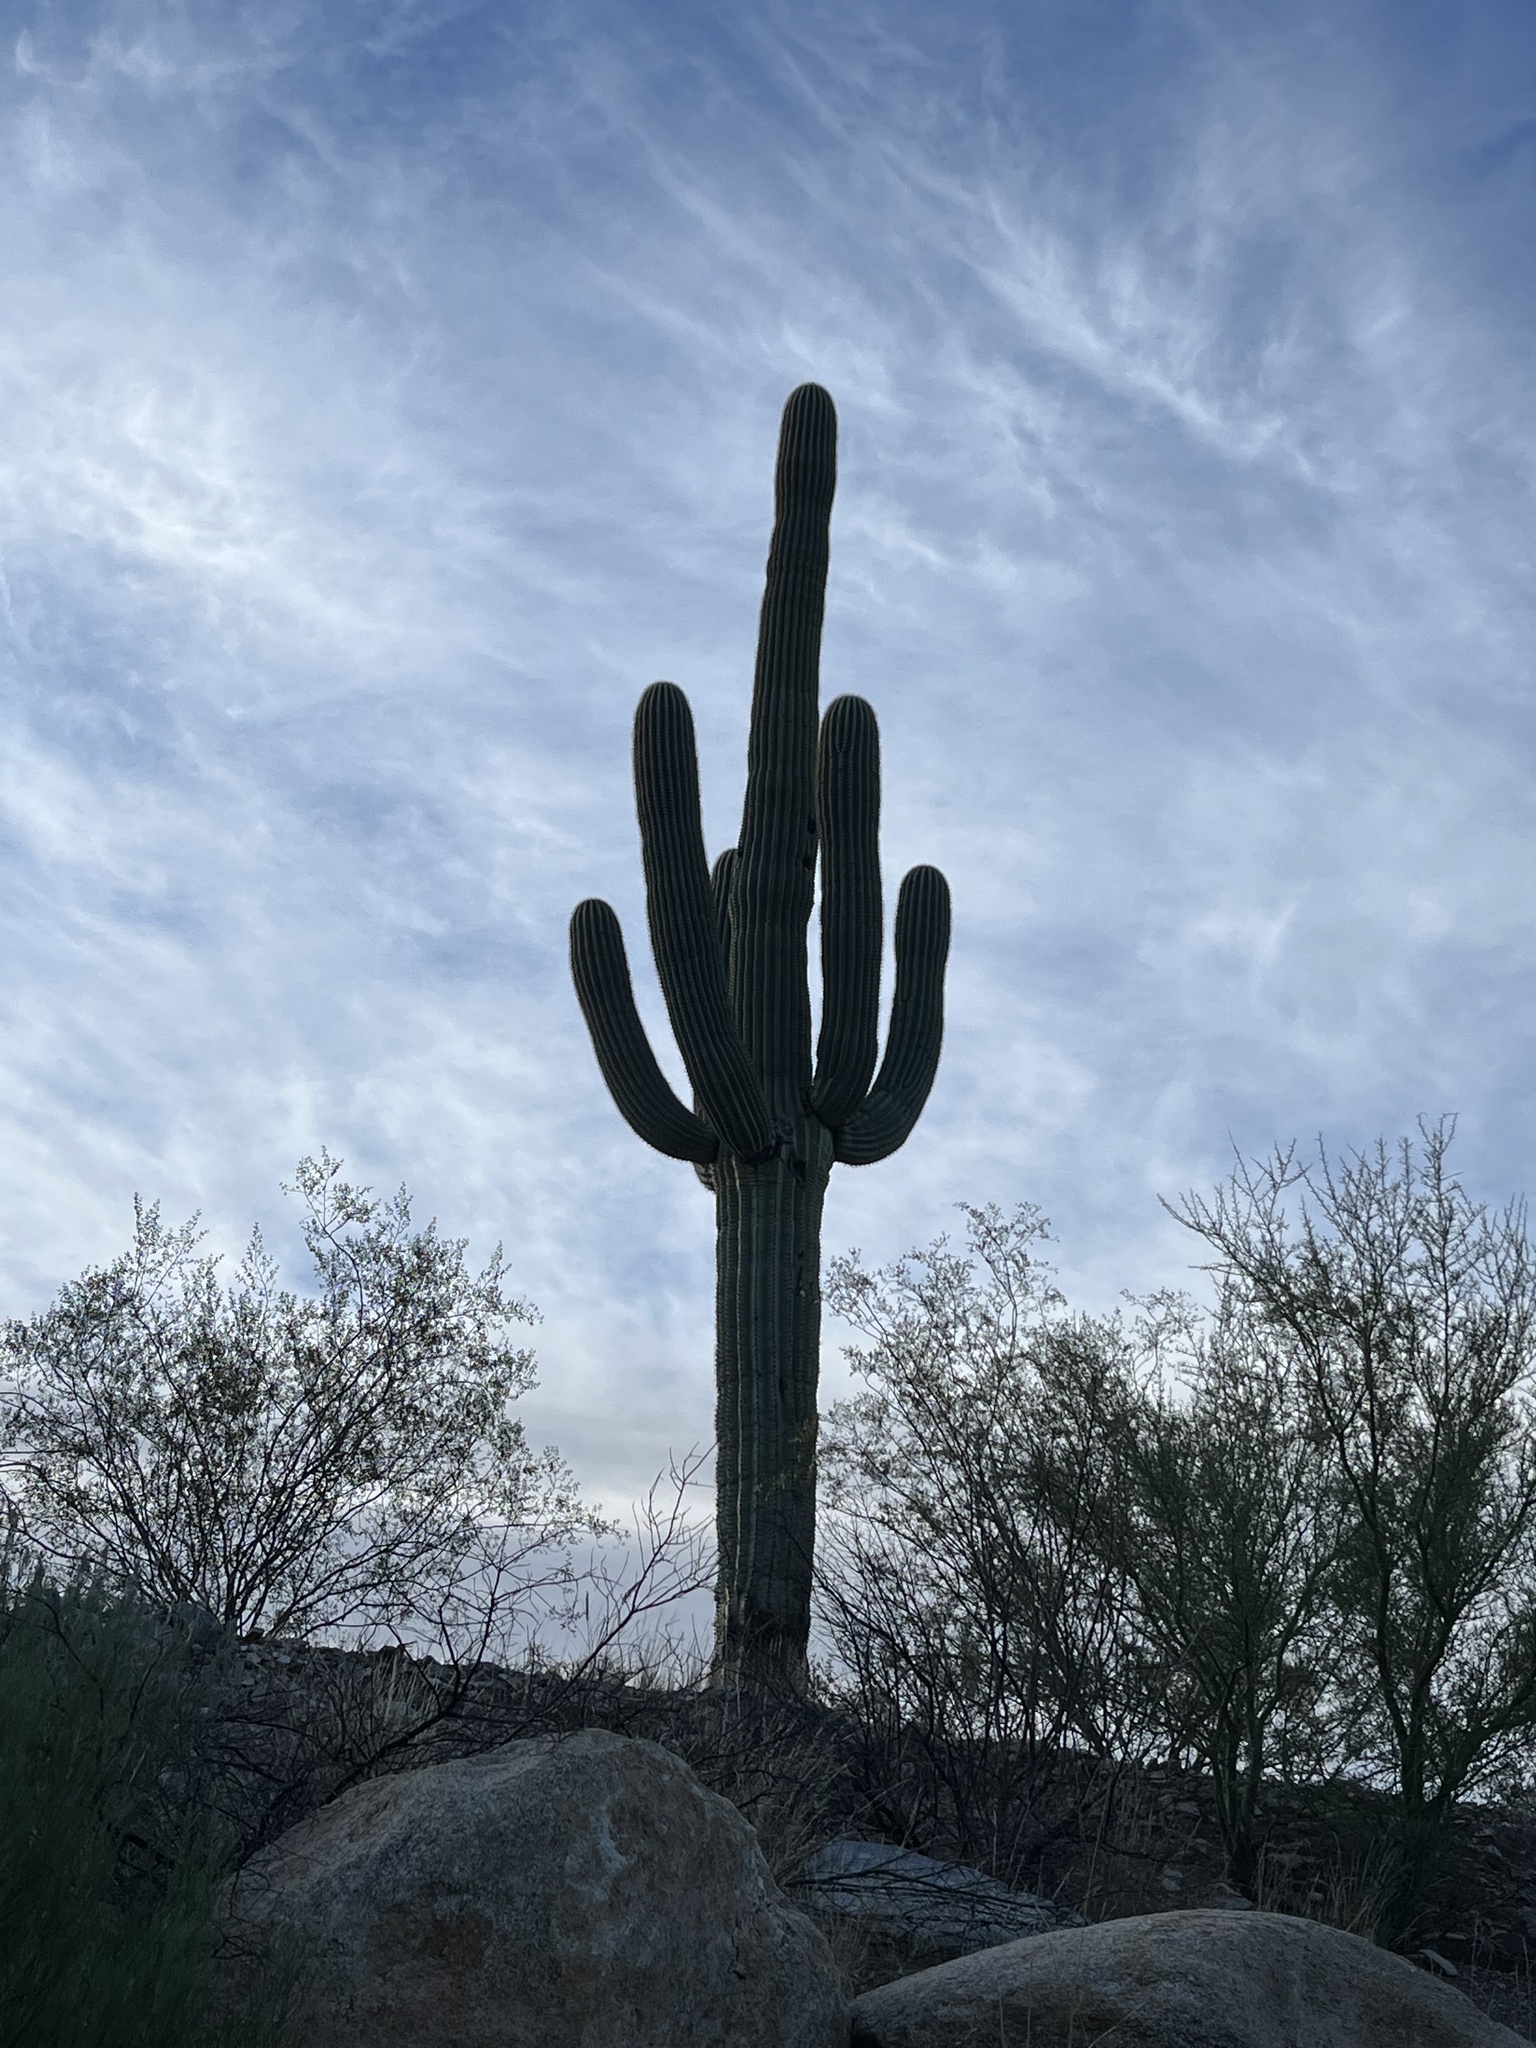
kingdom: Plantae
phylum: Tracheophyta
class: Magnoliopsida
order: Caryophyllales
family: Cactaceae
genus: Carnegiea
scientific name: Carnegiea gigantea
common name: Saguaro
